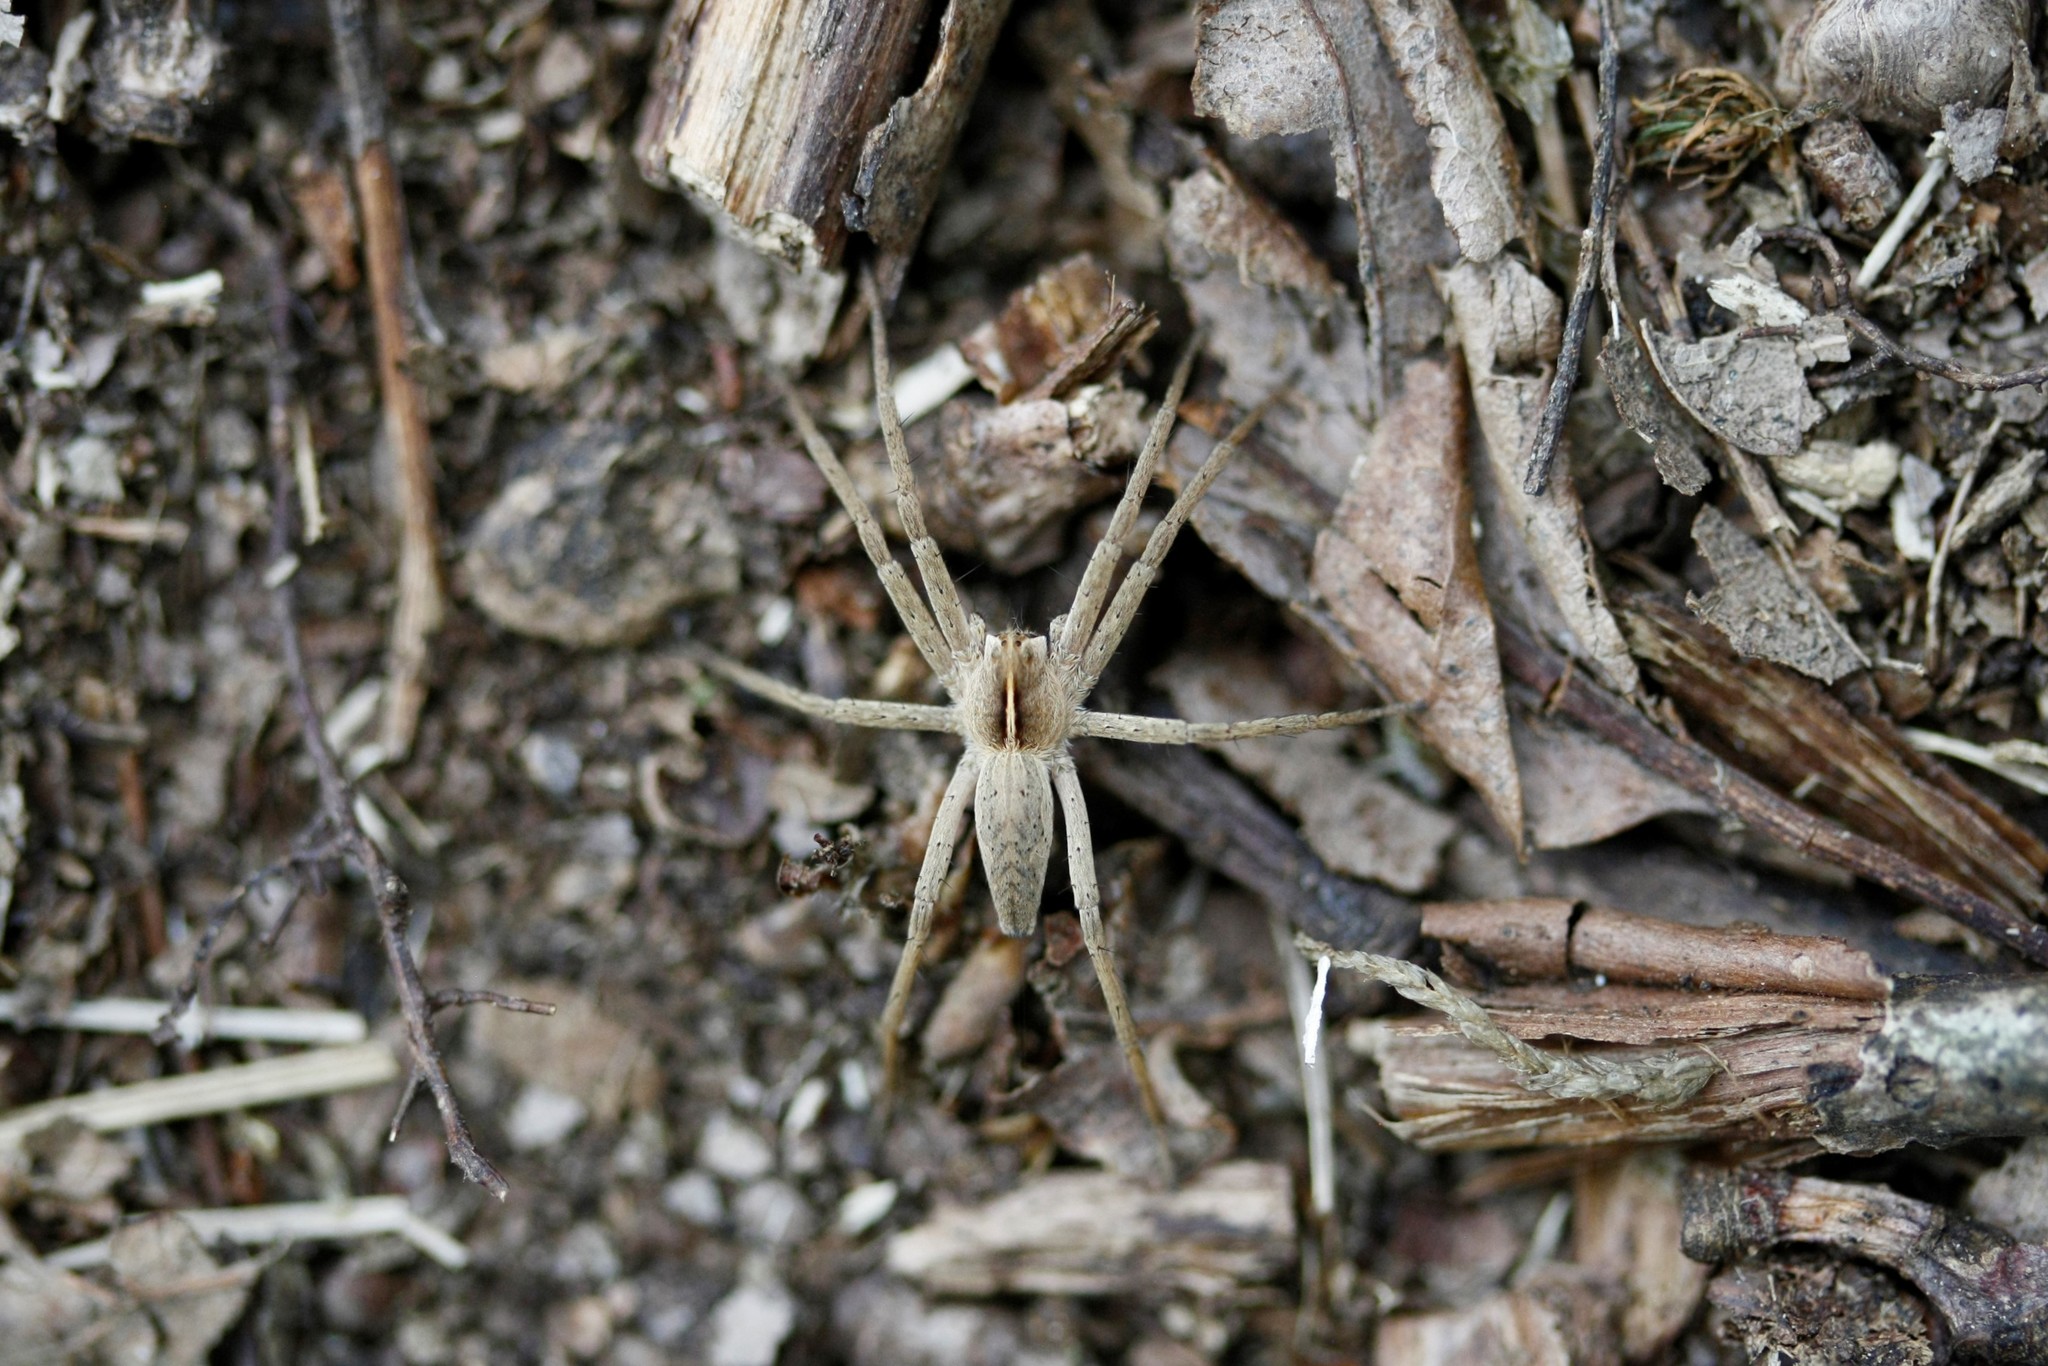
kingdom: Animalia
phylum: Arthropoda
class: Arachnida
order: Araneae
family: Pisauridae
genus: Pisaura
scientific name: Pisaura mirabilis
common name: Tent spider
